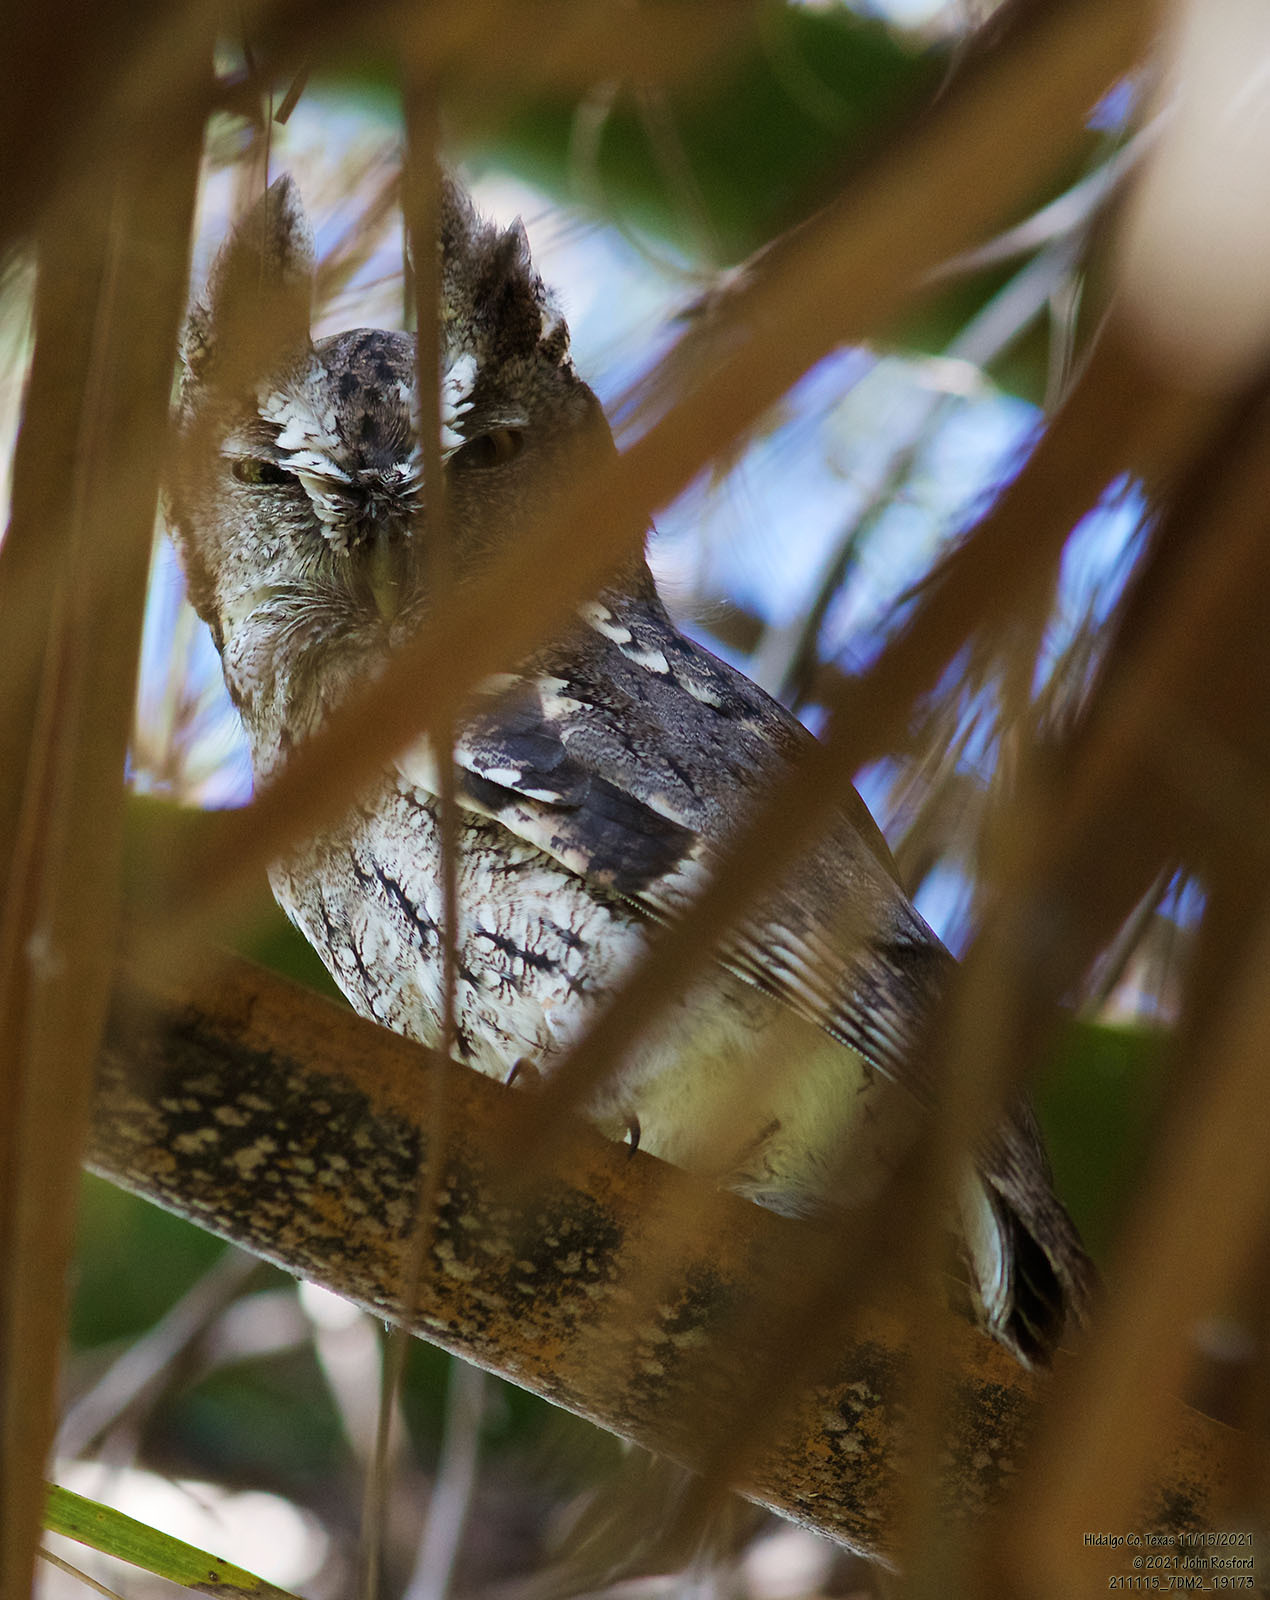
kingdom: Animalia
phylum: Chordata
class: Aves
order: Strigiformes
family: Strigidae
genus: Megascops
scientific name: Megascops asio
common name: Eastern screech-owl
